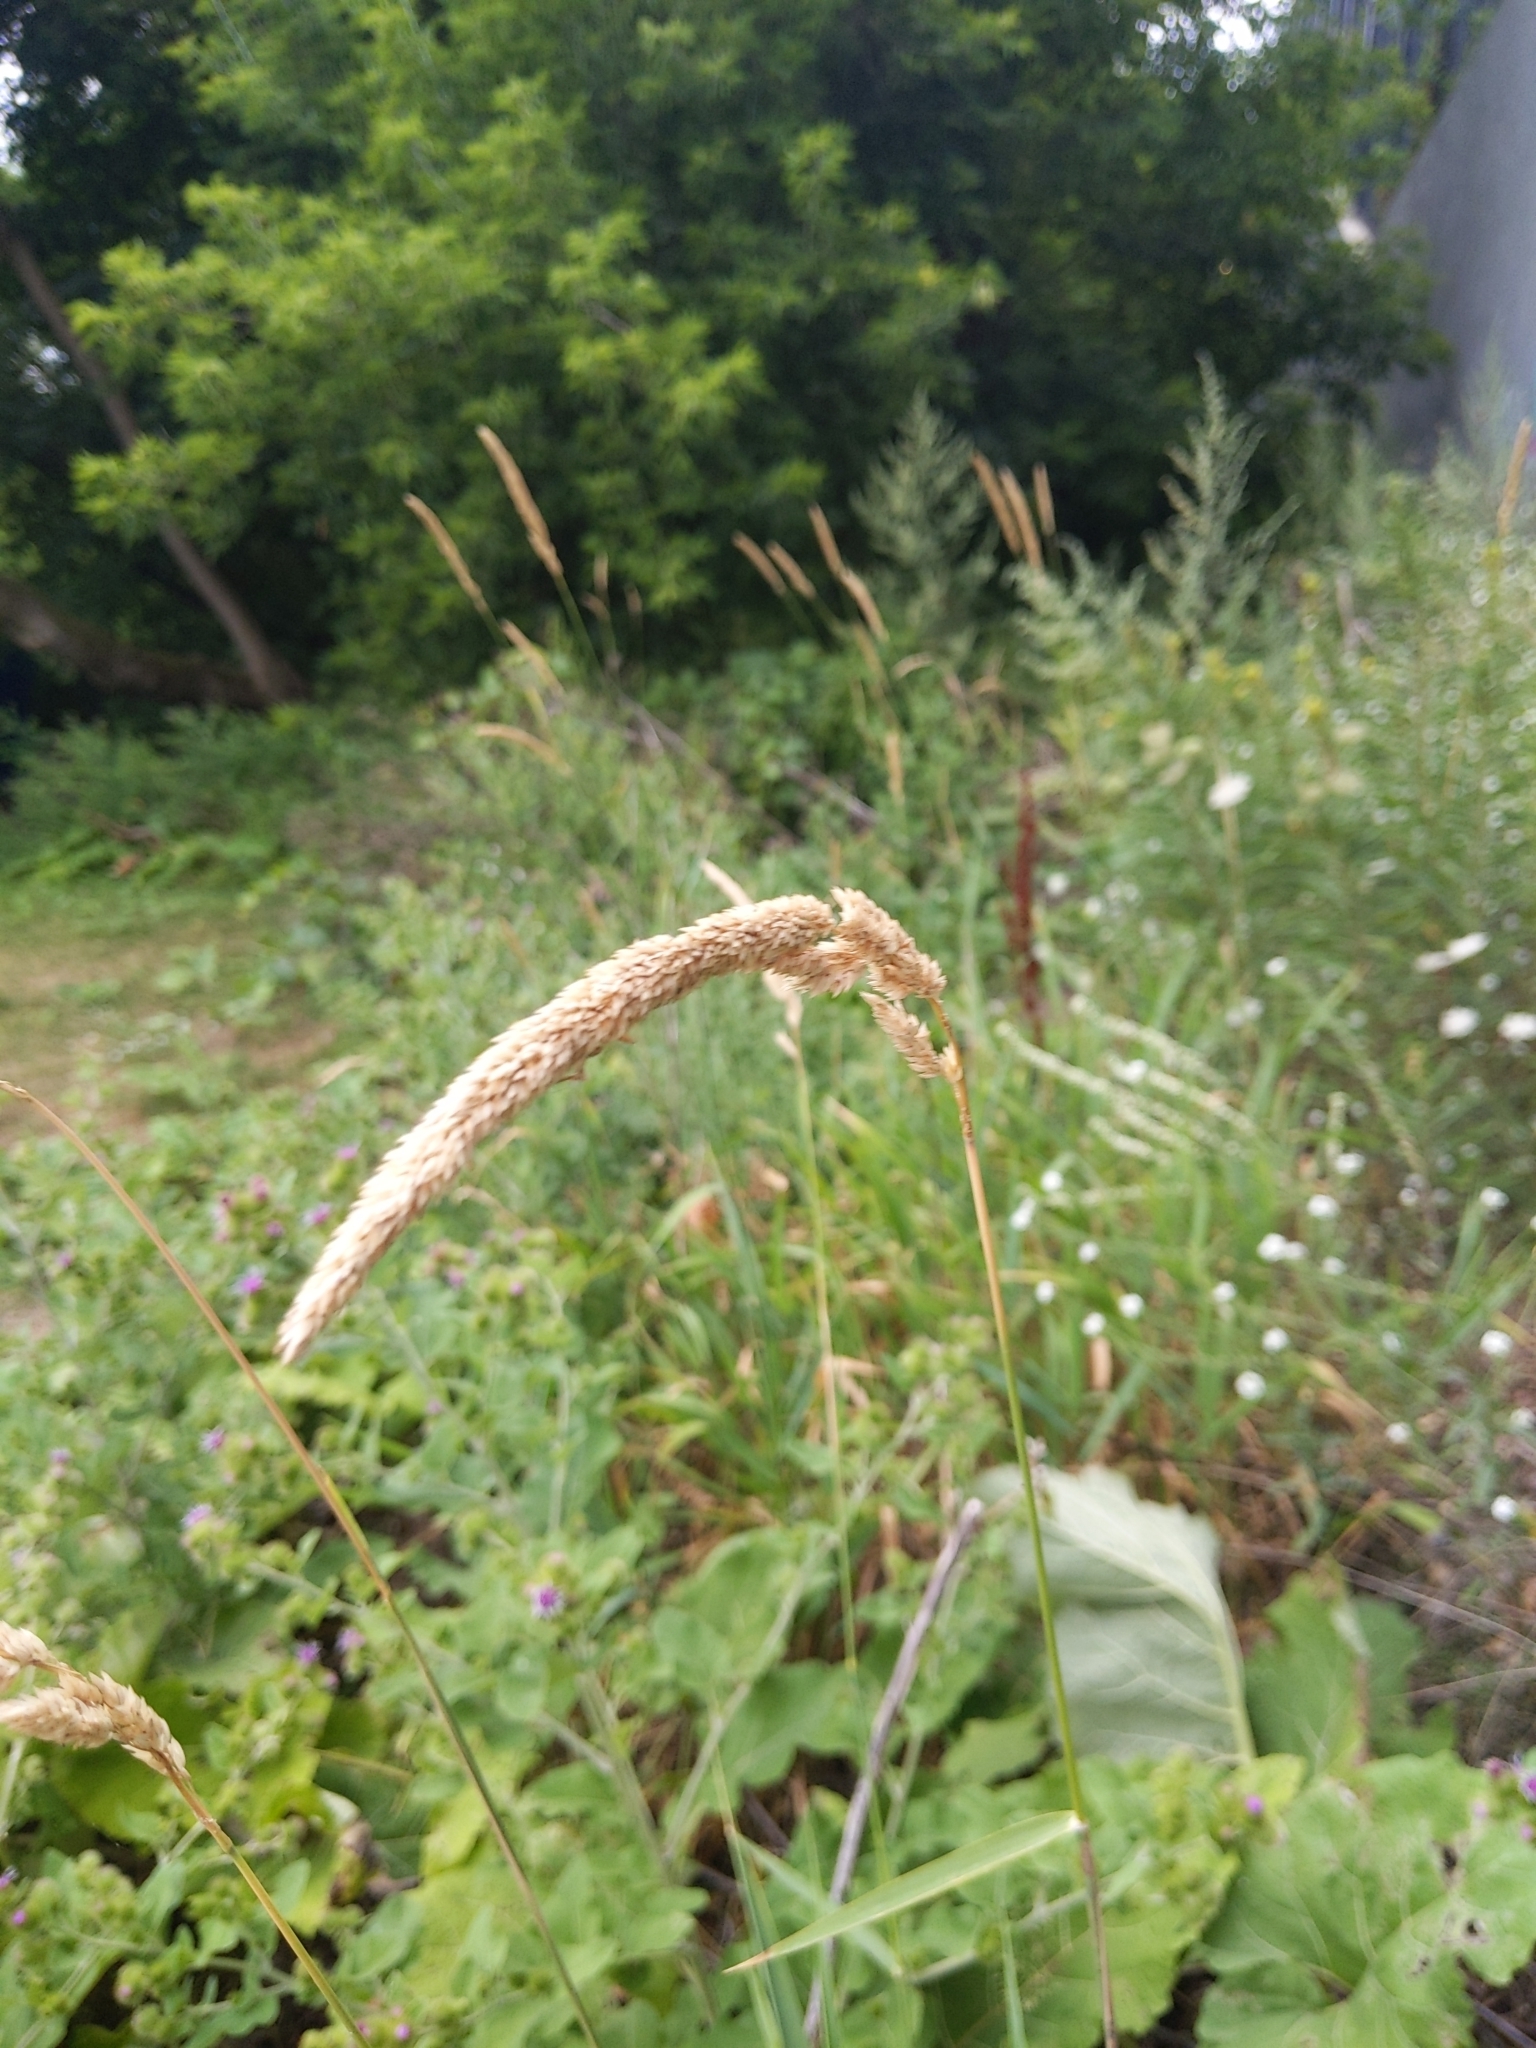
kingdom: Plantae
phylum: Tracheophyta
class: Liliopsida
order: Poales
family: Poaceae
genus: Phalaris
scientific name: Phalaris arundinacea
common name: Reed canary-grass
